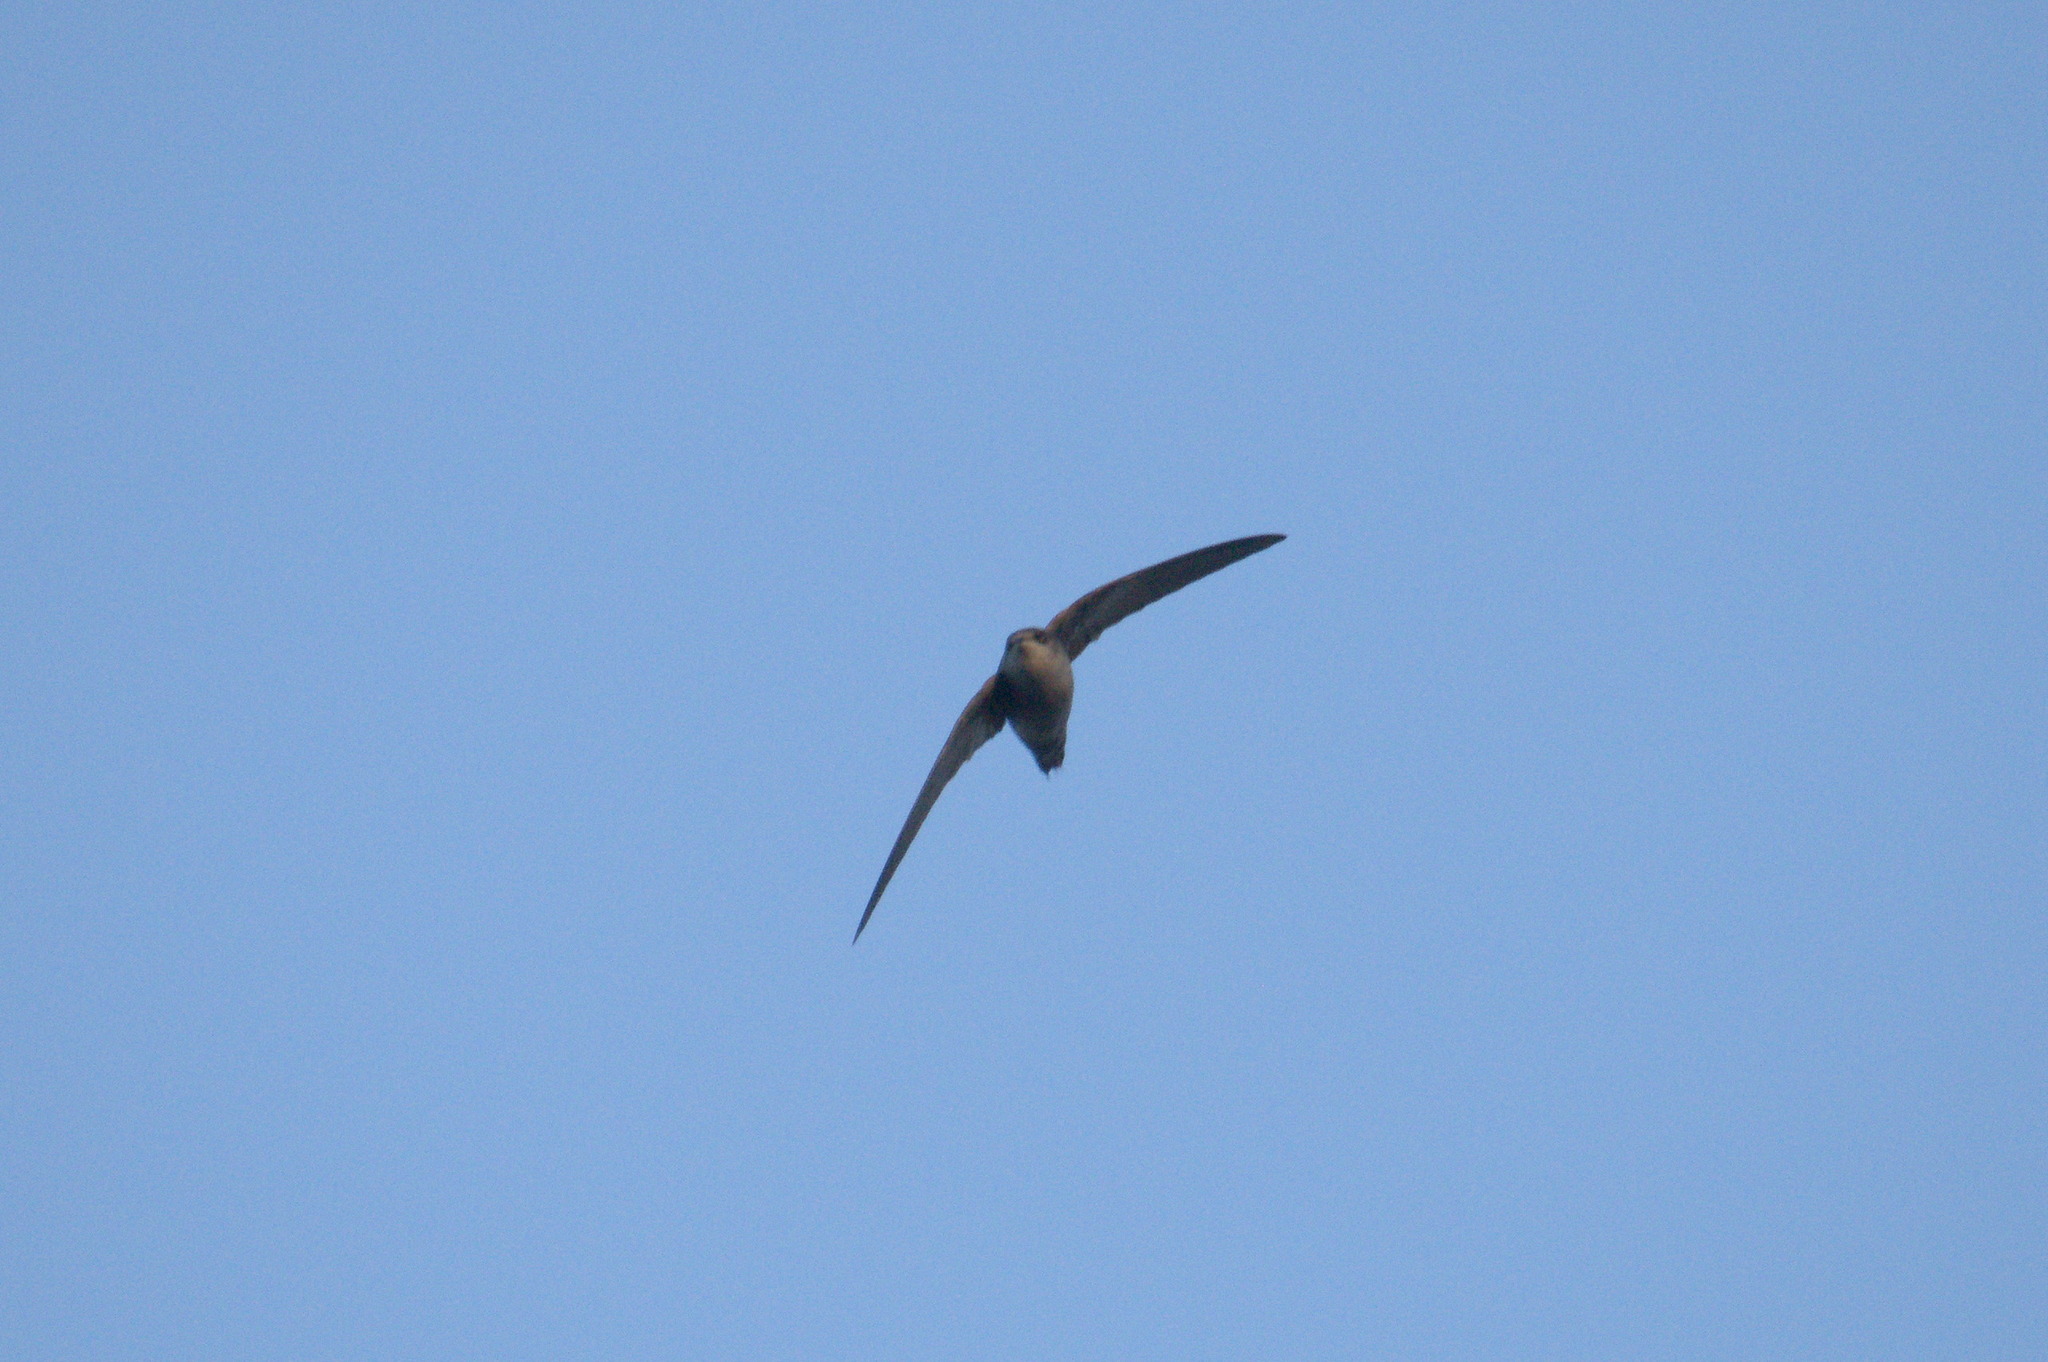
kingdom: Animalia
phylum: Chordata
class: Aves
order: Apodiformes
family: Apodidae
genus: Chaetura
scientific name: Chaetura vauxi
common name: Vaux's swift
